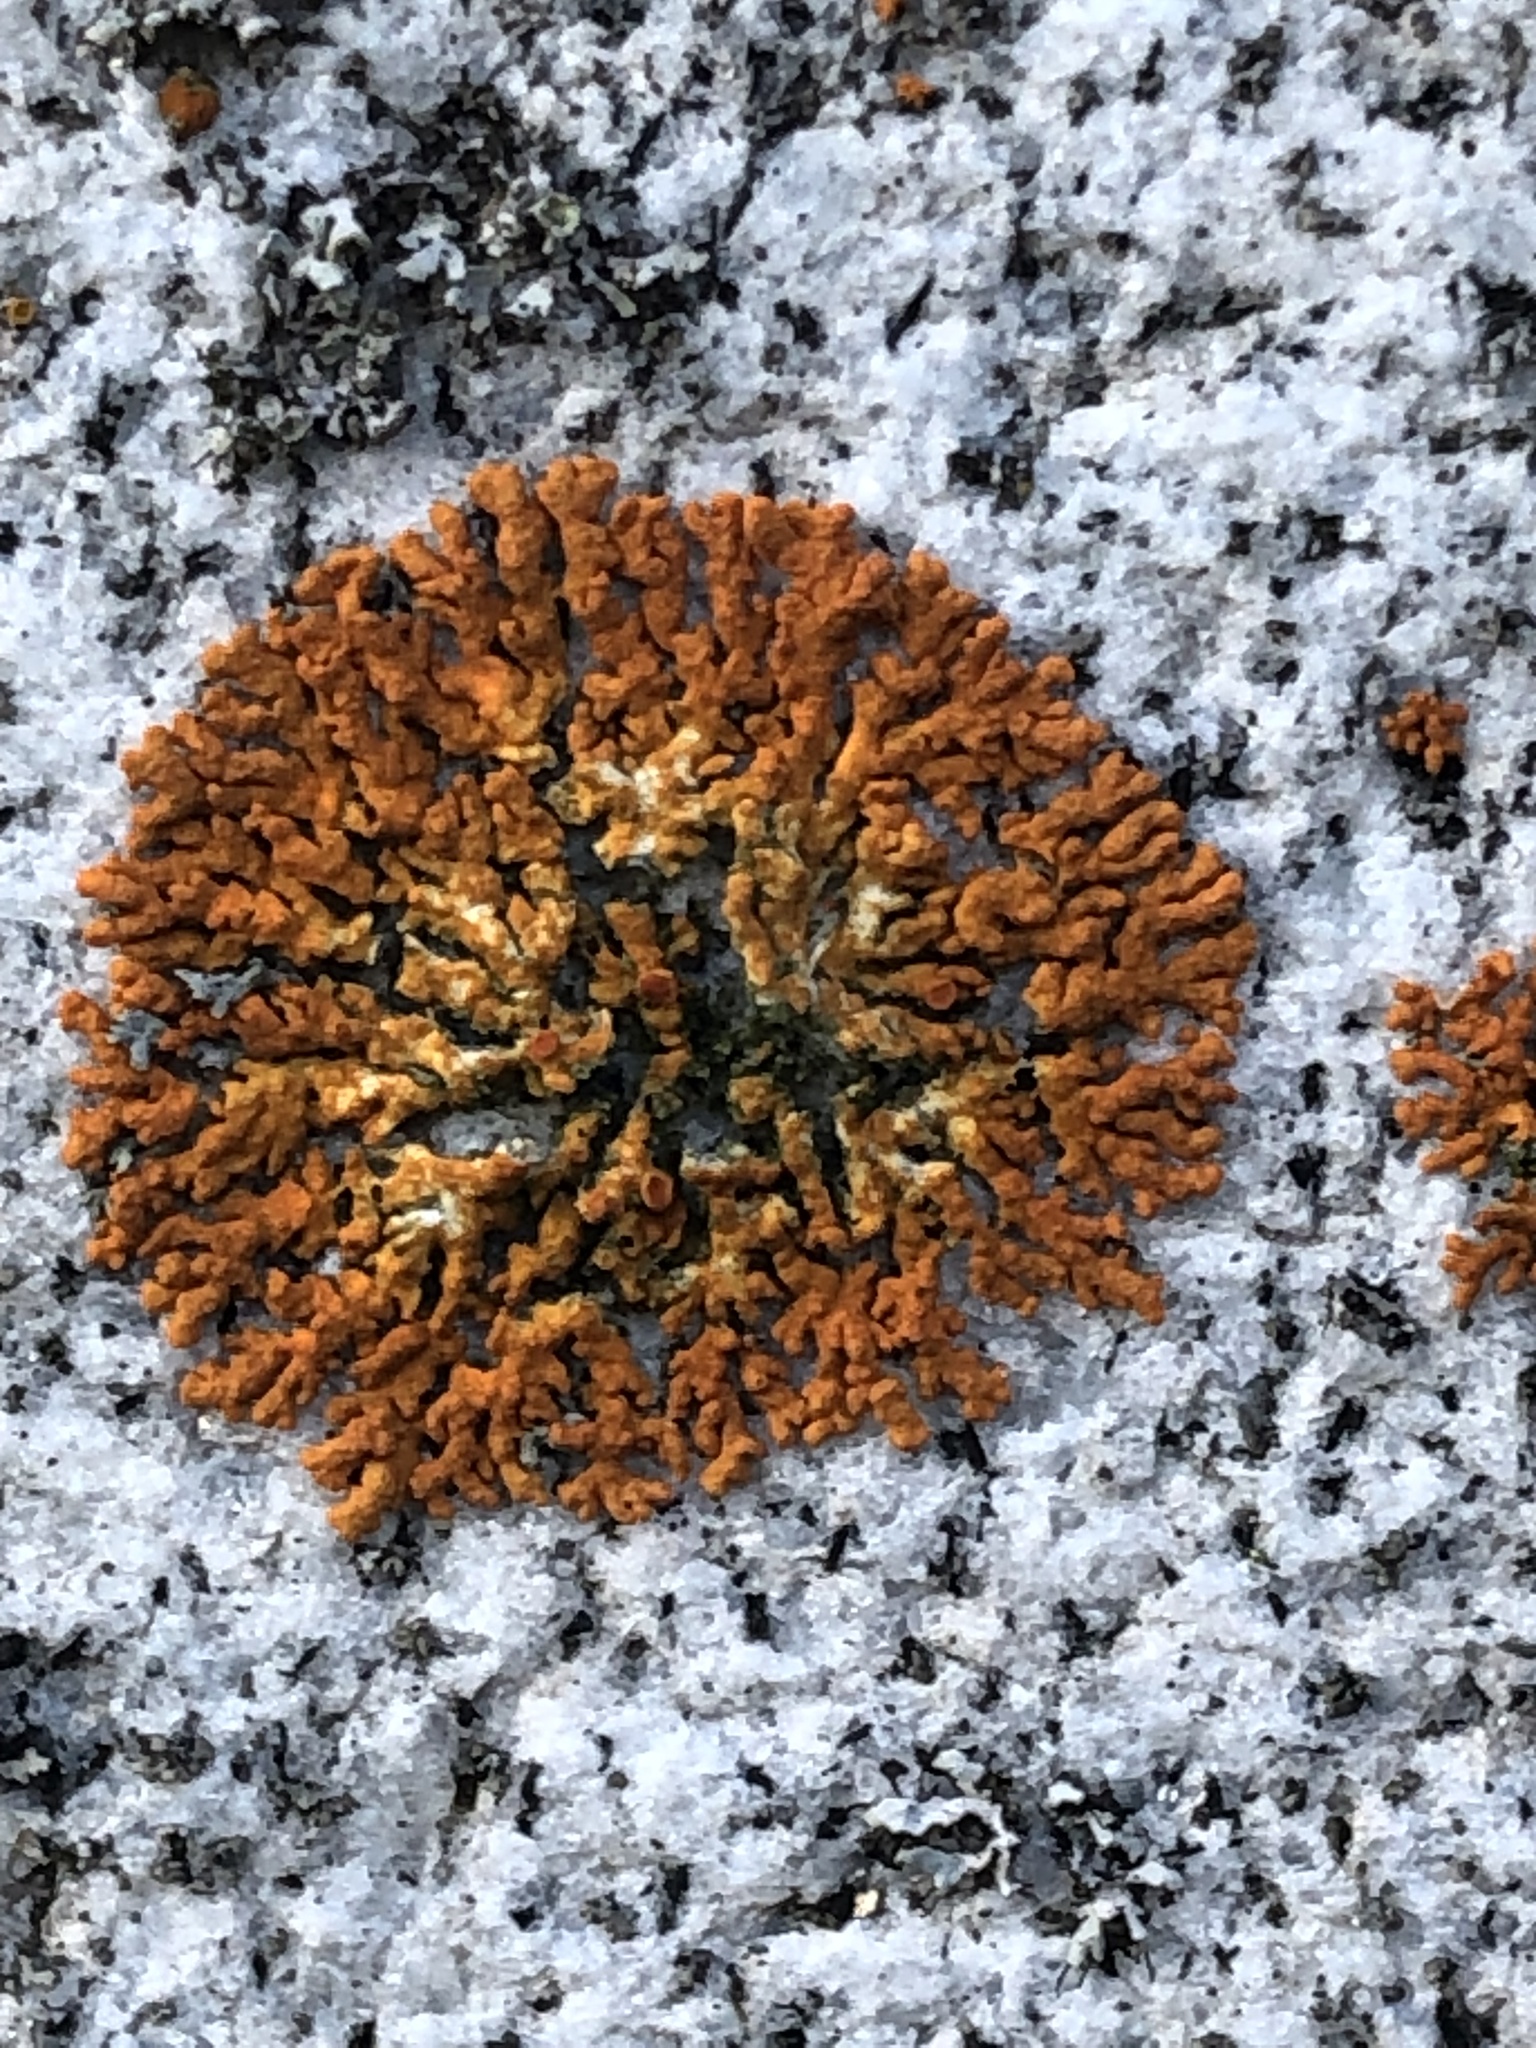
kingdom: Fungi
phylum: Ascomycota
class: Lecanoromycetes
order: Teloschistales
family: Teloschistaceae
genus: Xanthoria
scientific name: Xanthoria elegans
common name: Elegant sunburst lichen
